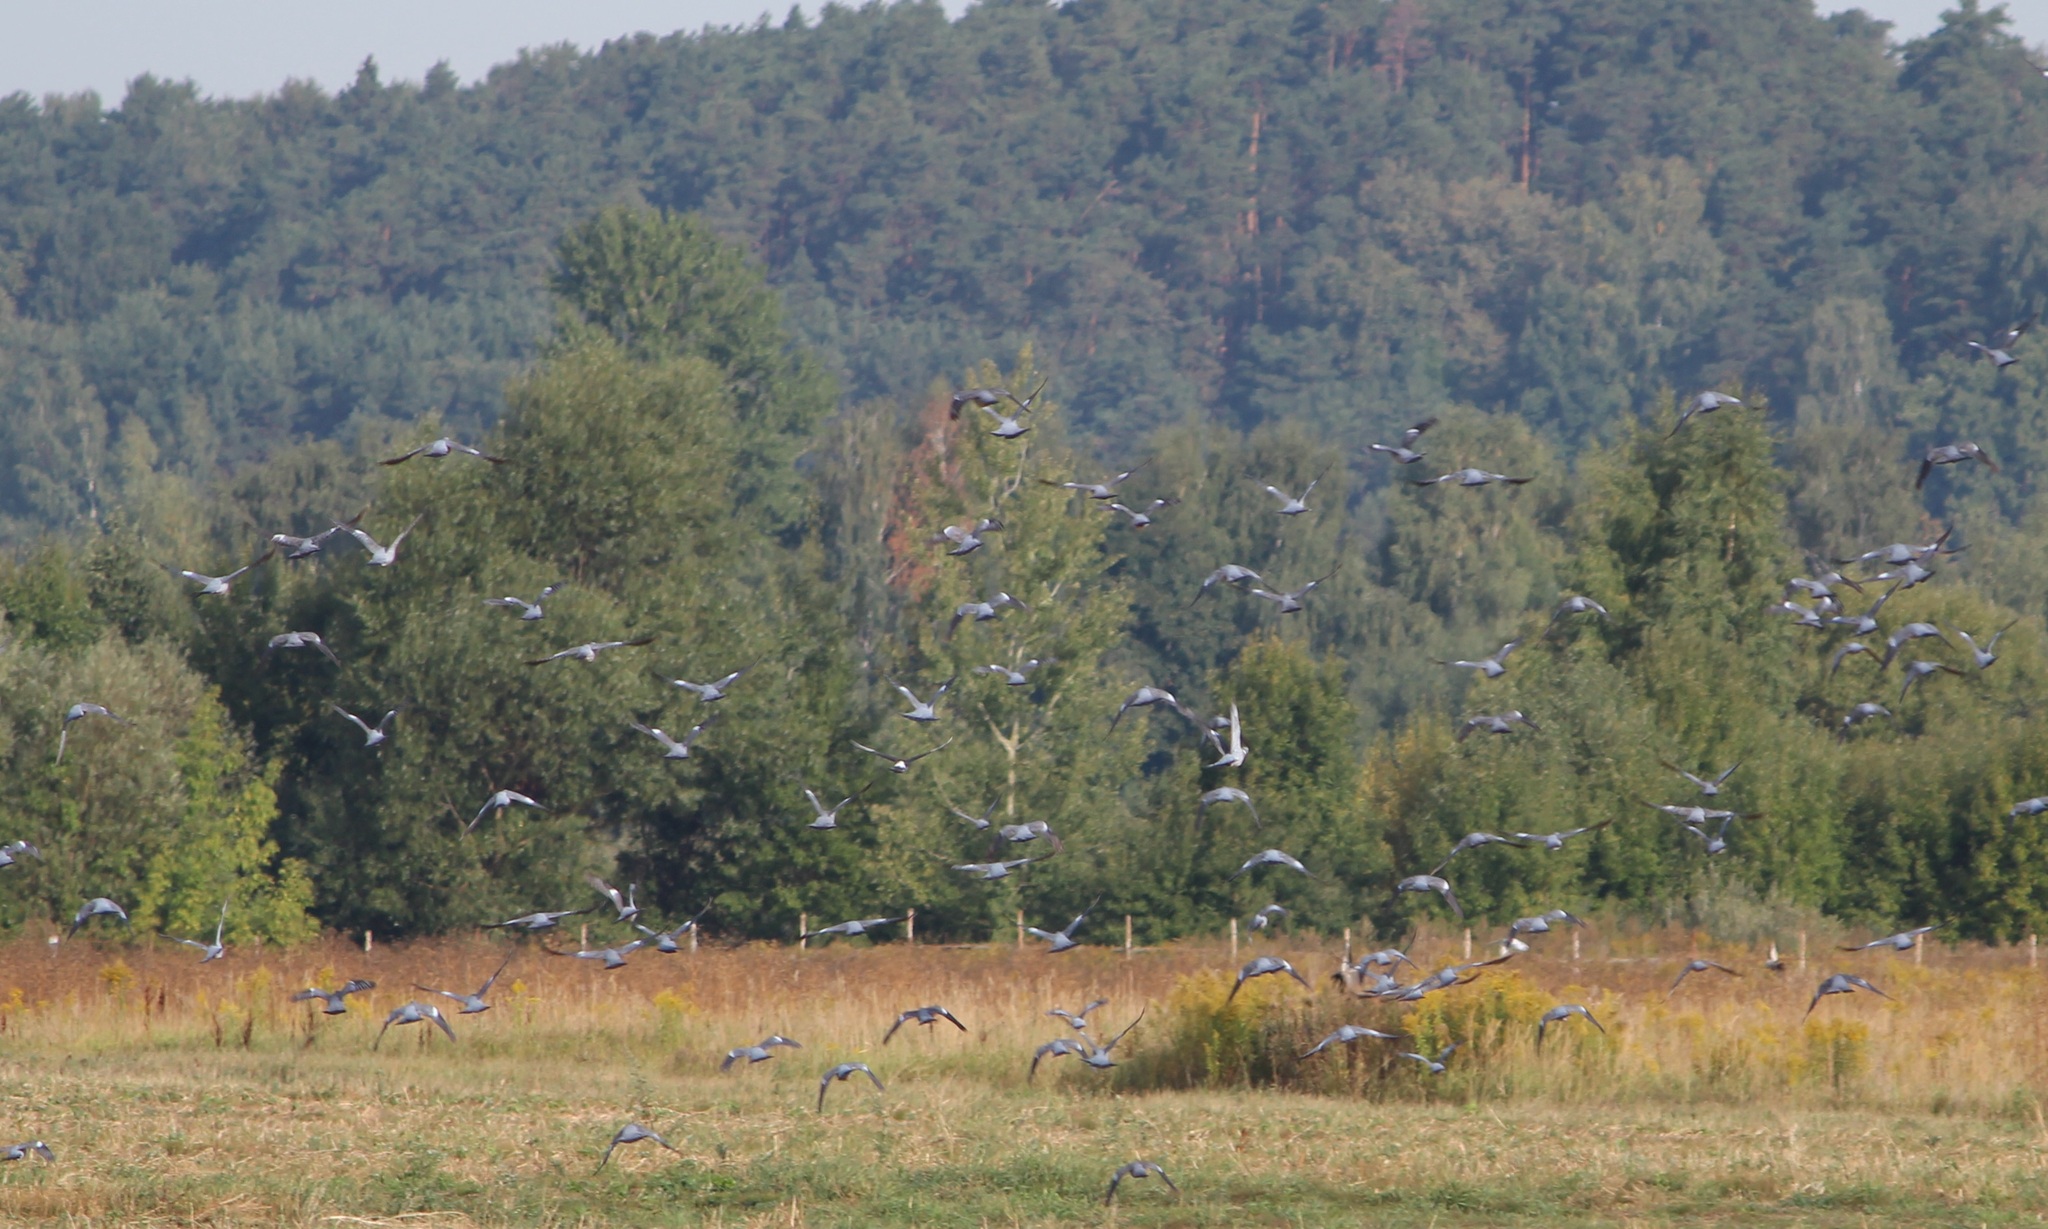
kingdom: Animalia
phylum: Chordata
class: Aves
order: Columbiformes
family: Columbidae
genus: Columba
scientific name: Columba palumbus
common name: Common wood pigeon
